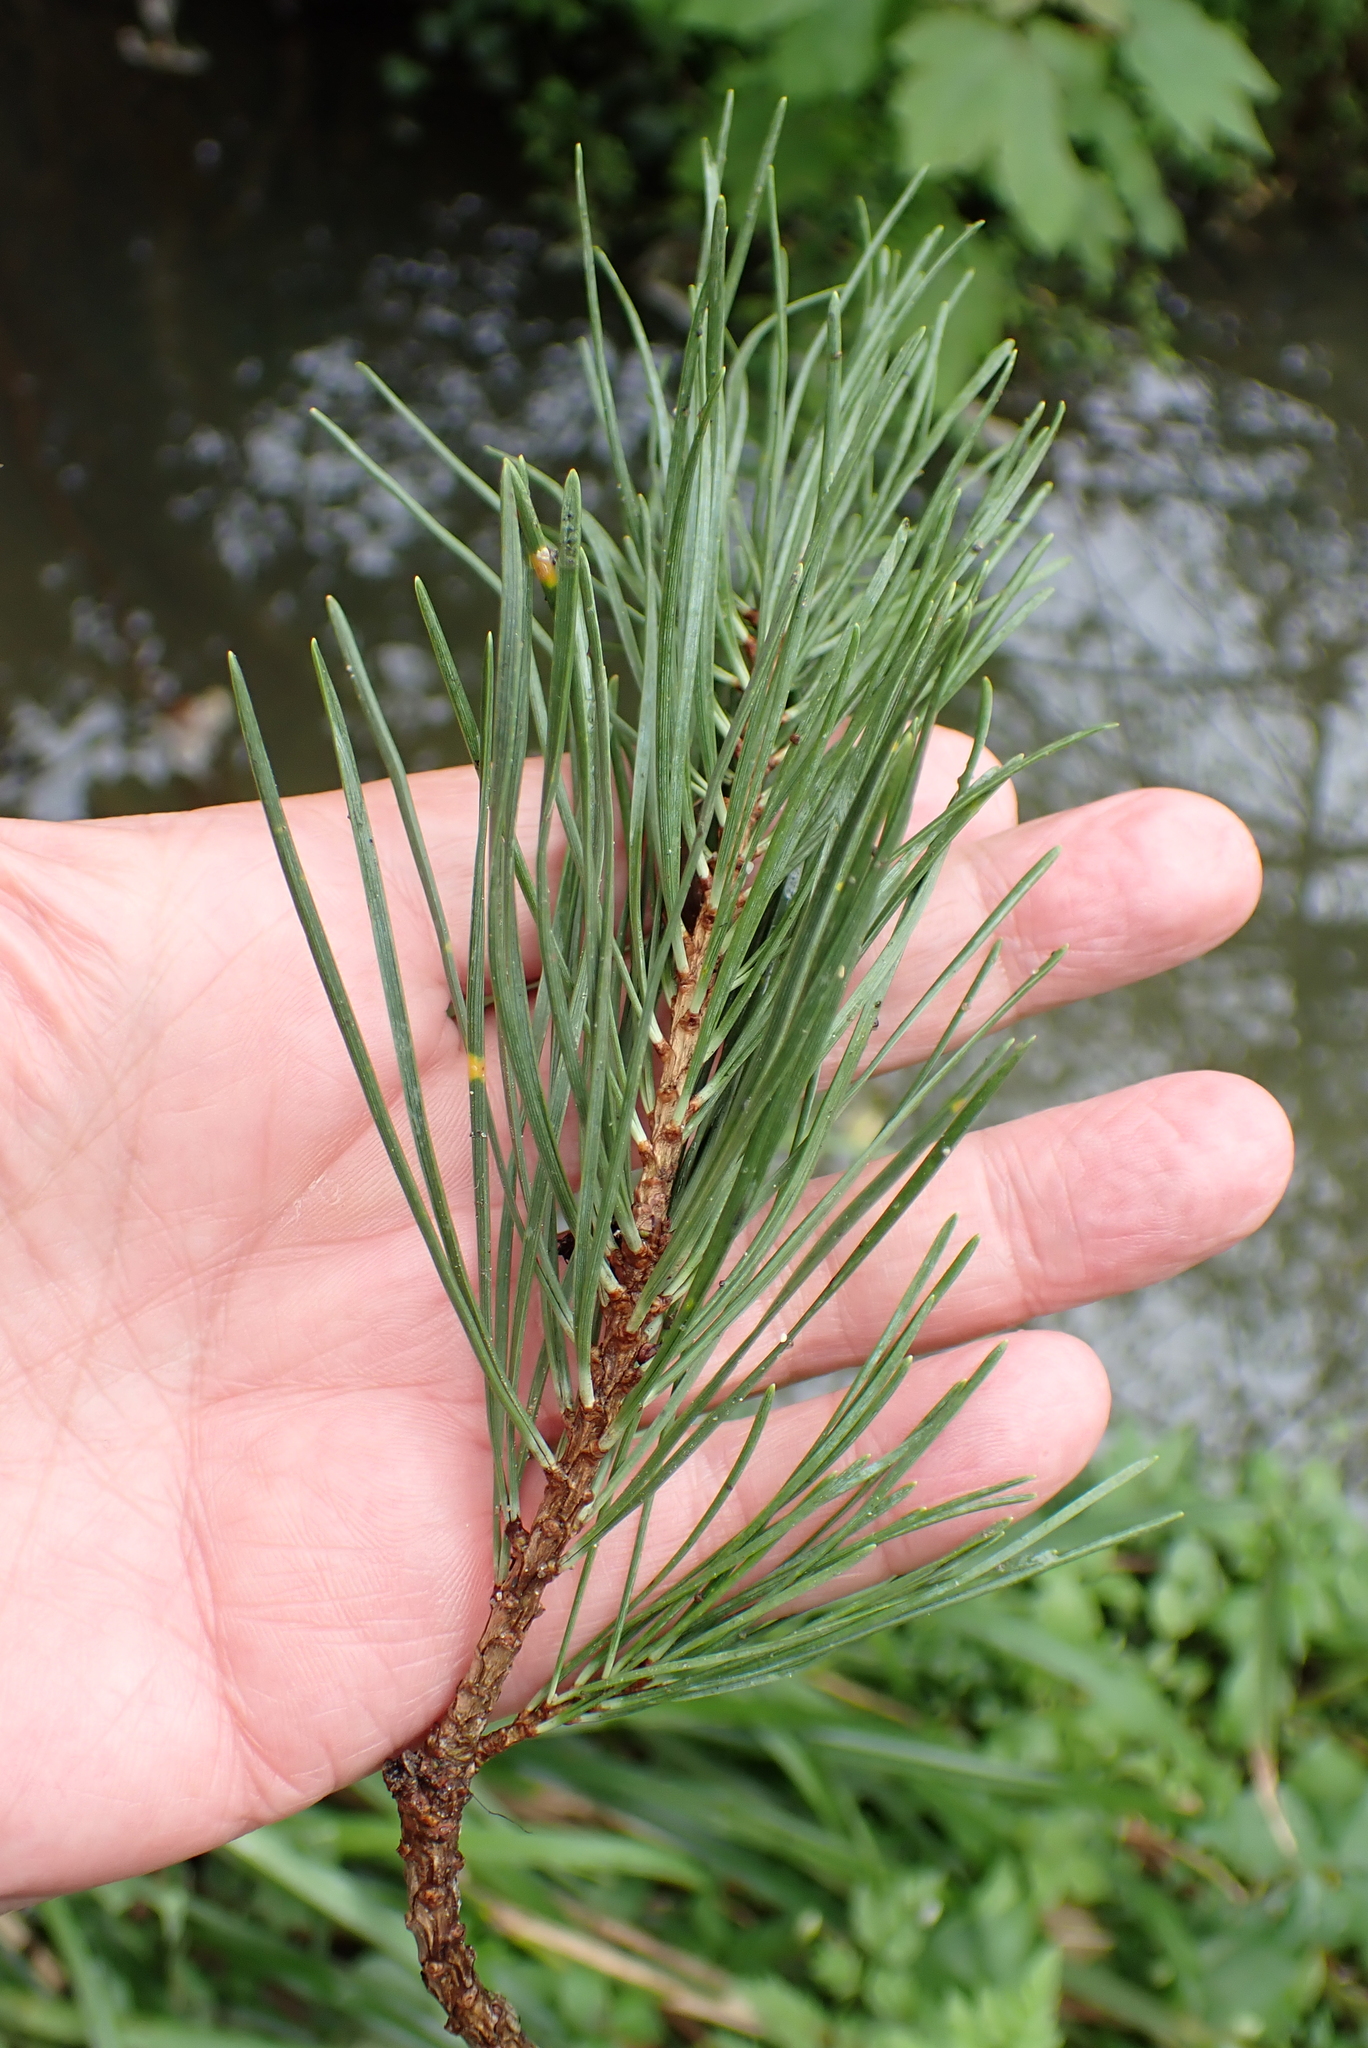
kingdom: Plantae
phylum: Tracheophyta
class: Pinopsida
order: Pinales
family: Pinaceae
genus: Pinus
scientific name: Pinus sylvestris
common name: Scots pine
